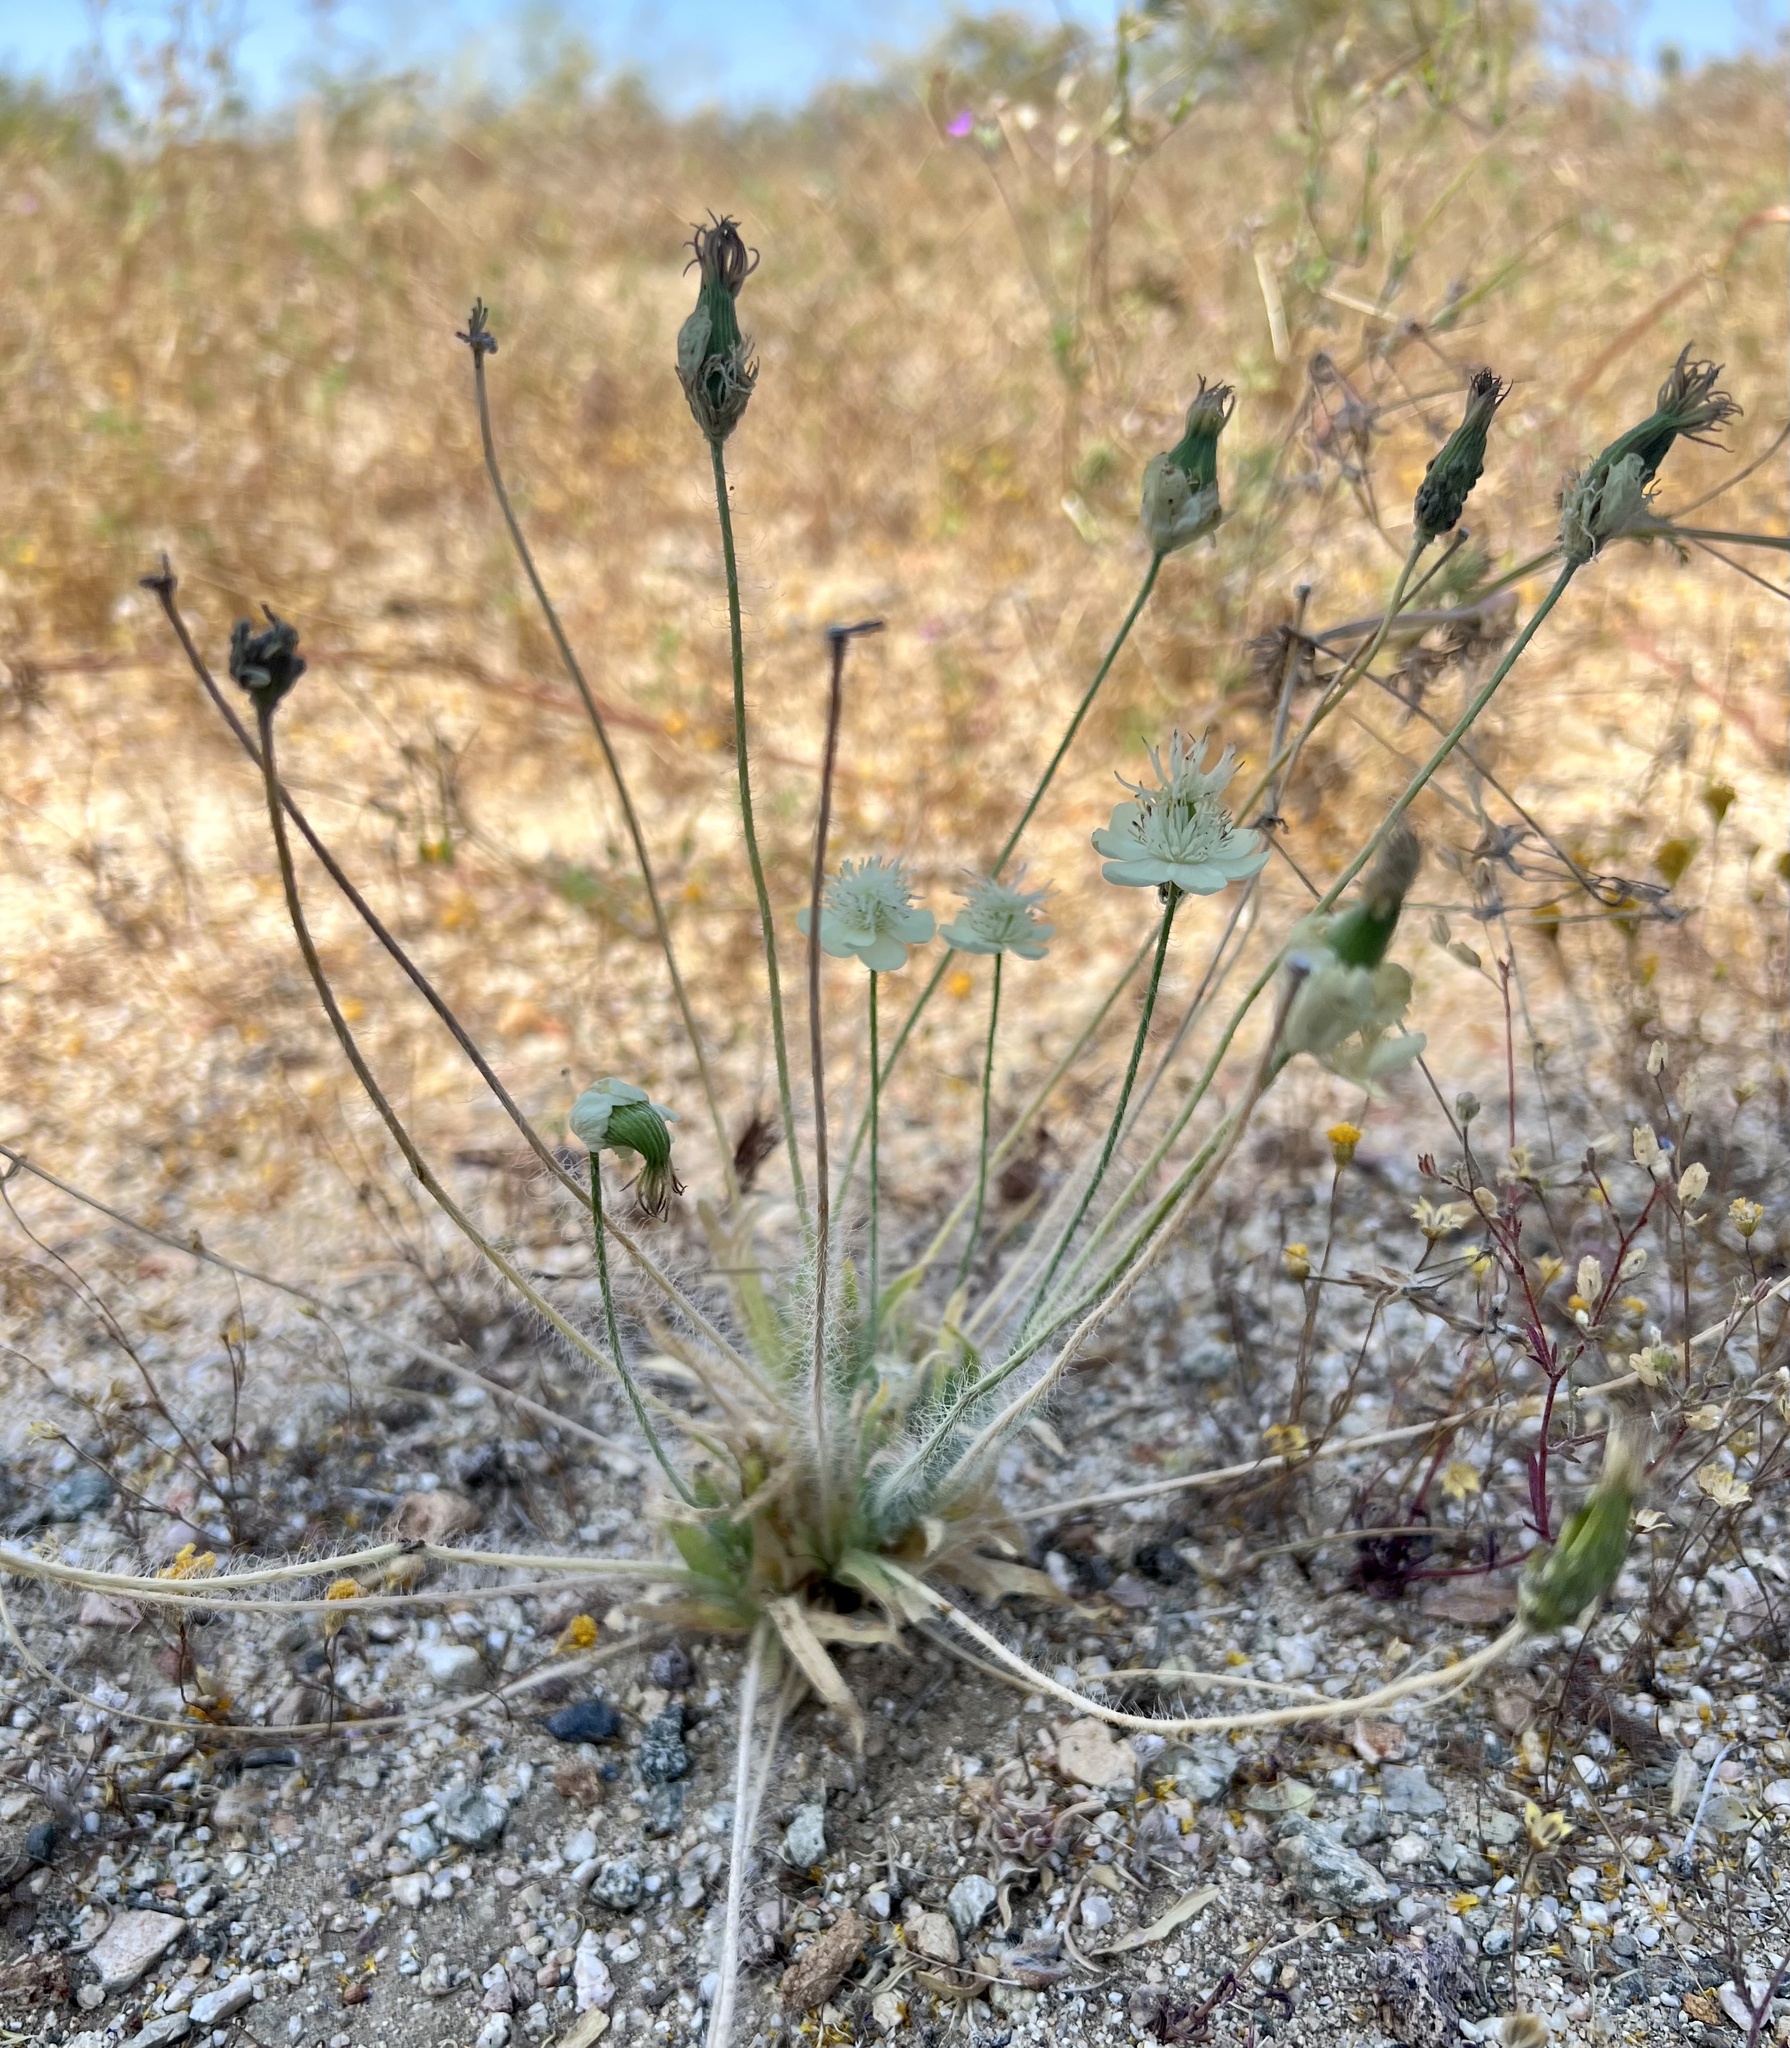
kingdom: Plantae
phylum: Tracheophyta
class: Magnoliopsida
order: Ranunculales
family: Papaveraceae
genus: Platystemon
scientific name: Platystemon californicus
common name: Cream-cups
